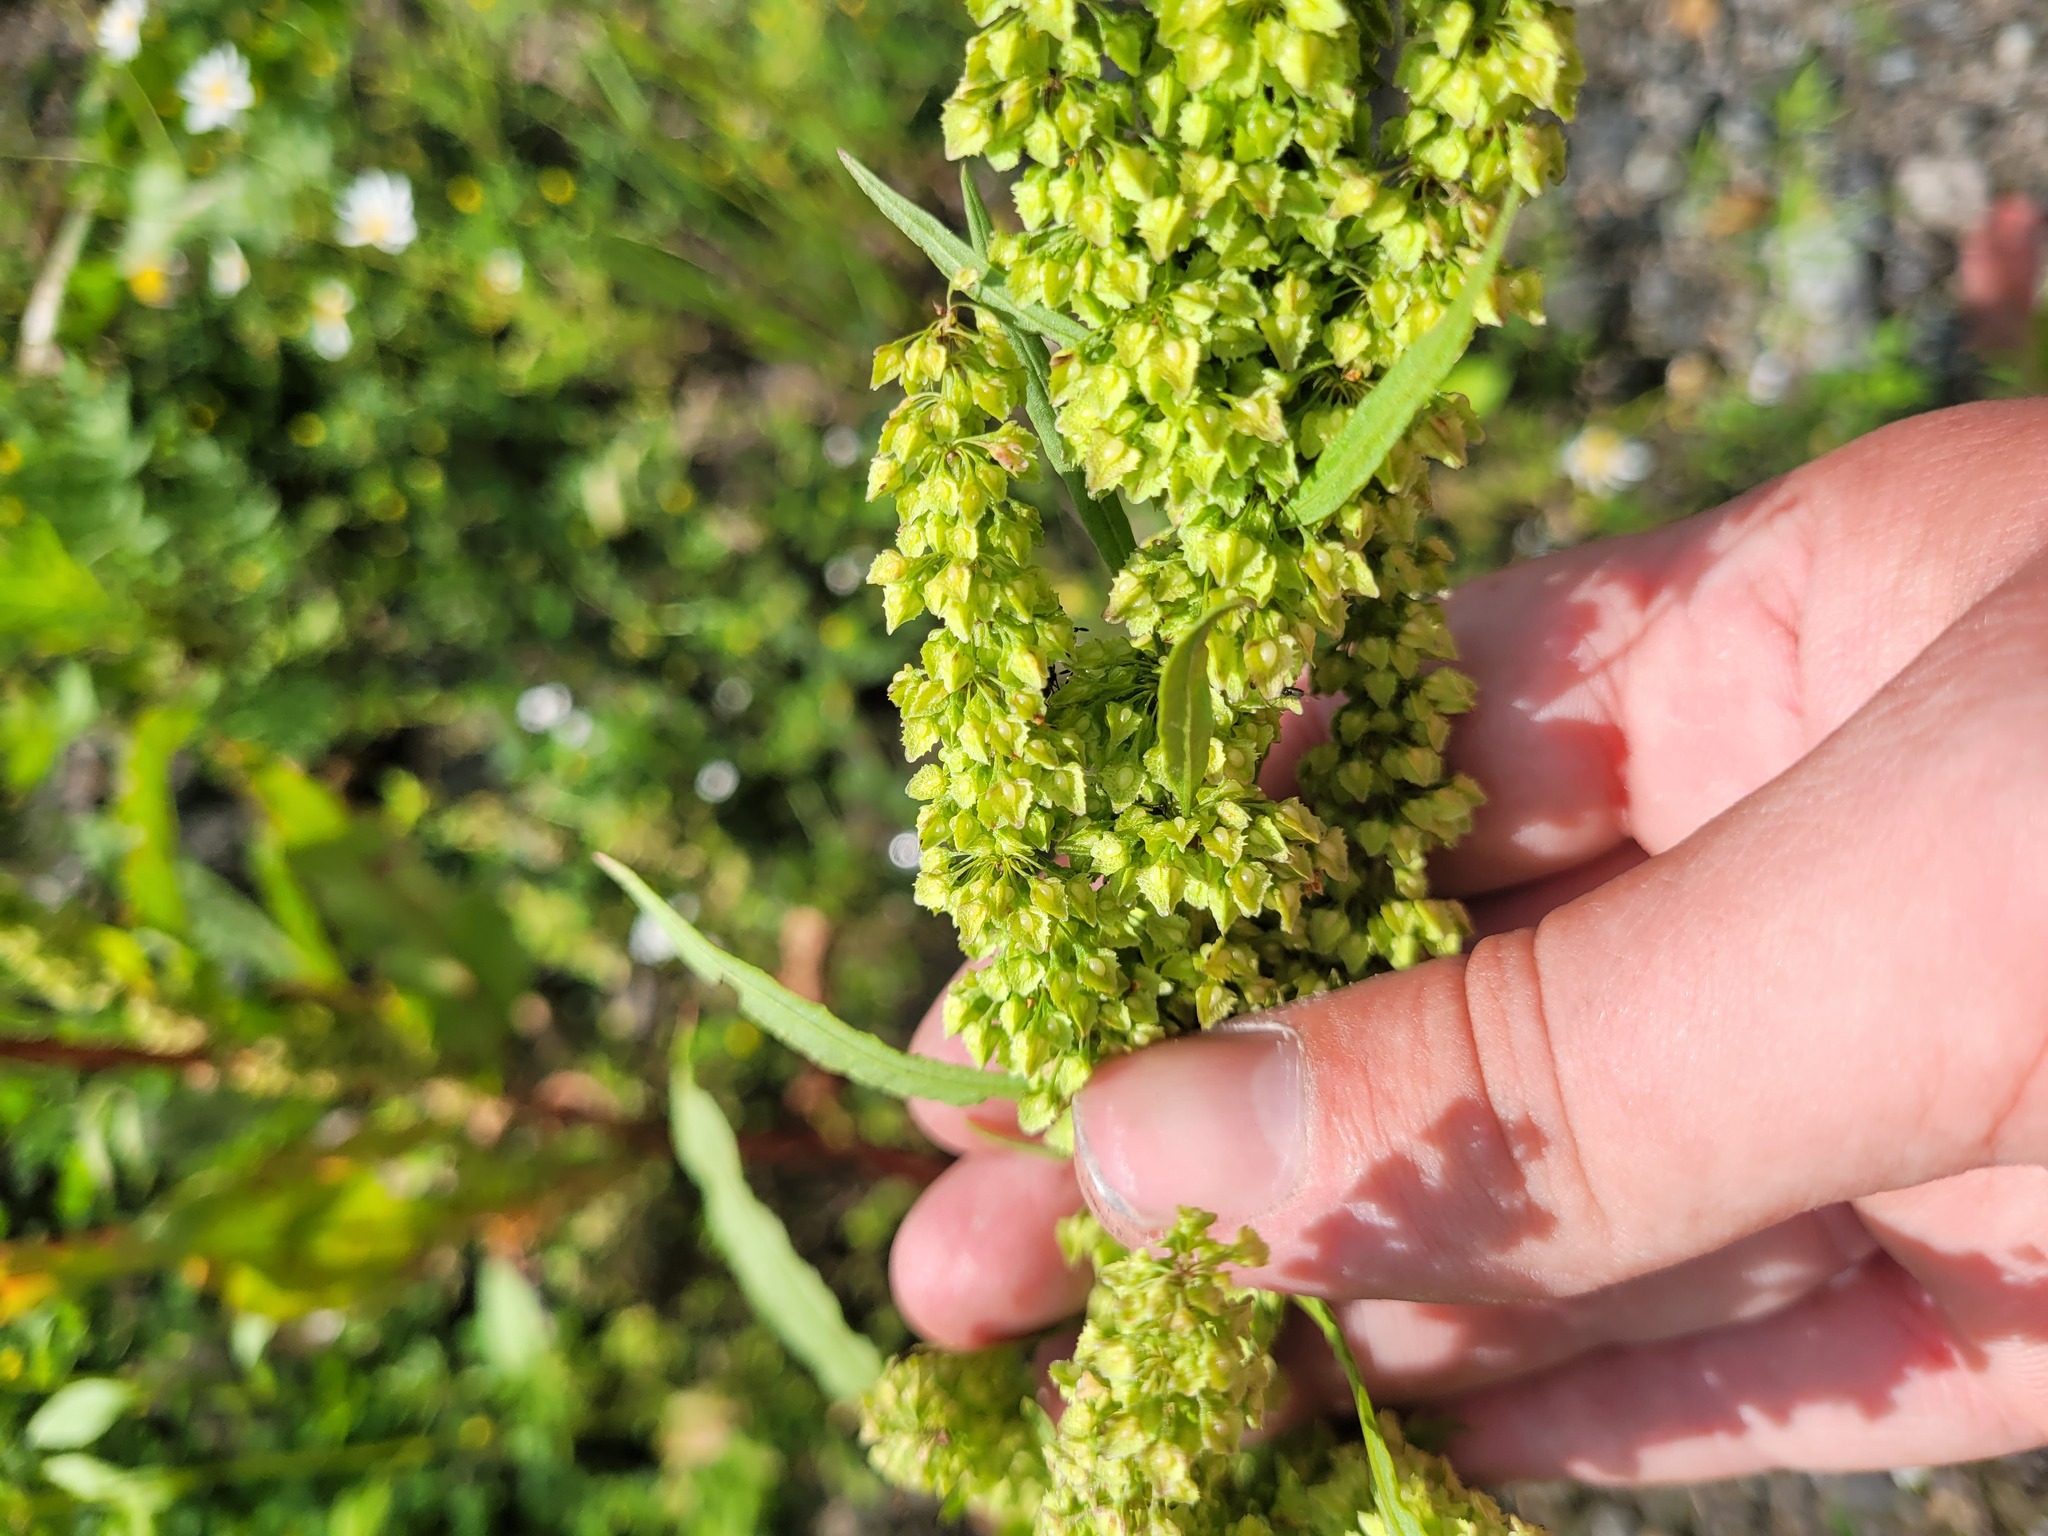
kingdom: Plantae
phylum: Tracheophyta
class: Magnoliopsida
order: Caryophyllales
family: Polygonaceae
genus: Rumex
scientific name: Rumex stenophyllus
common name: Narrowleaf dock
